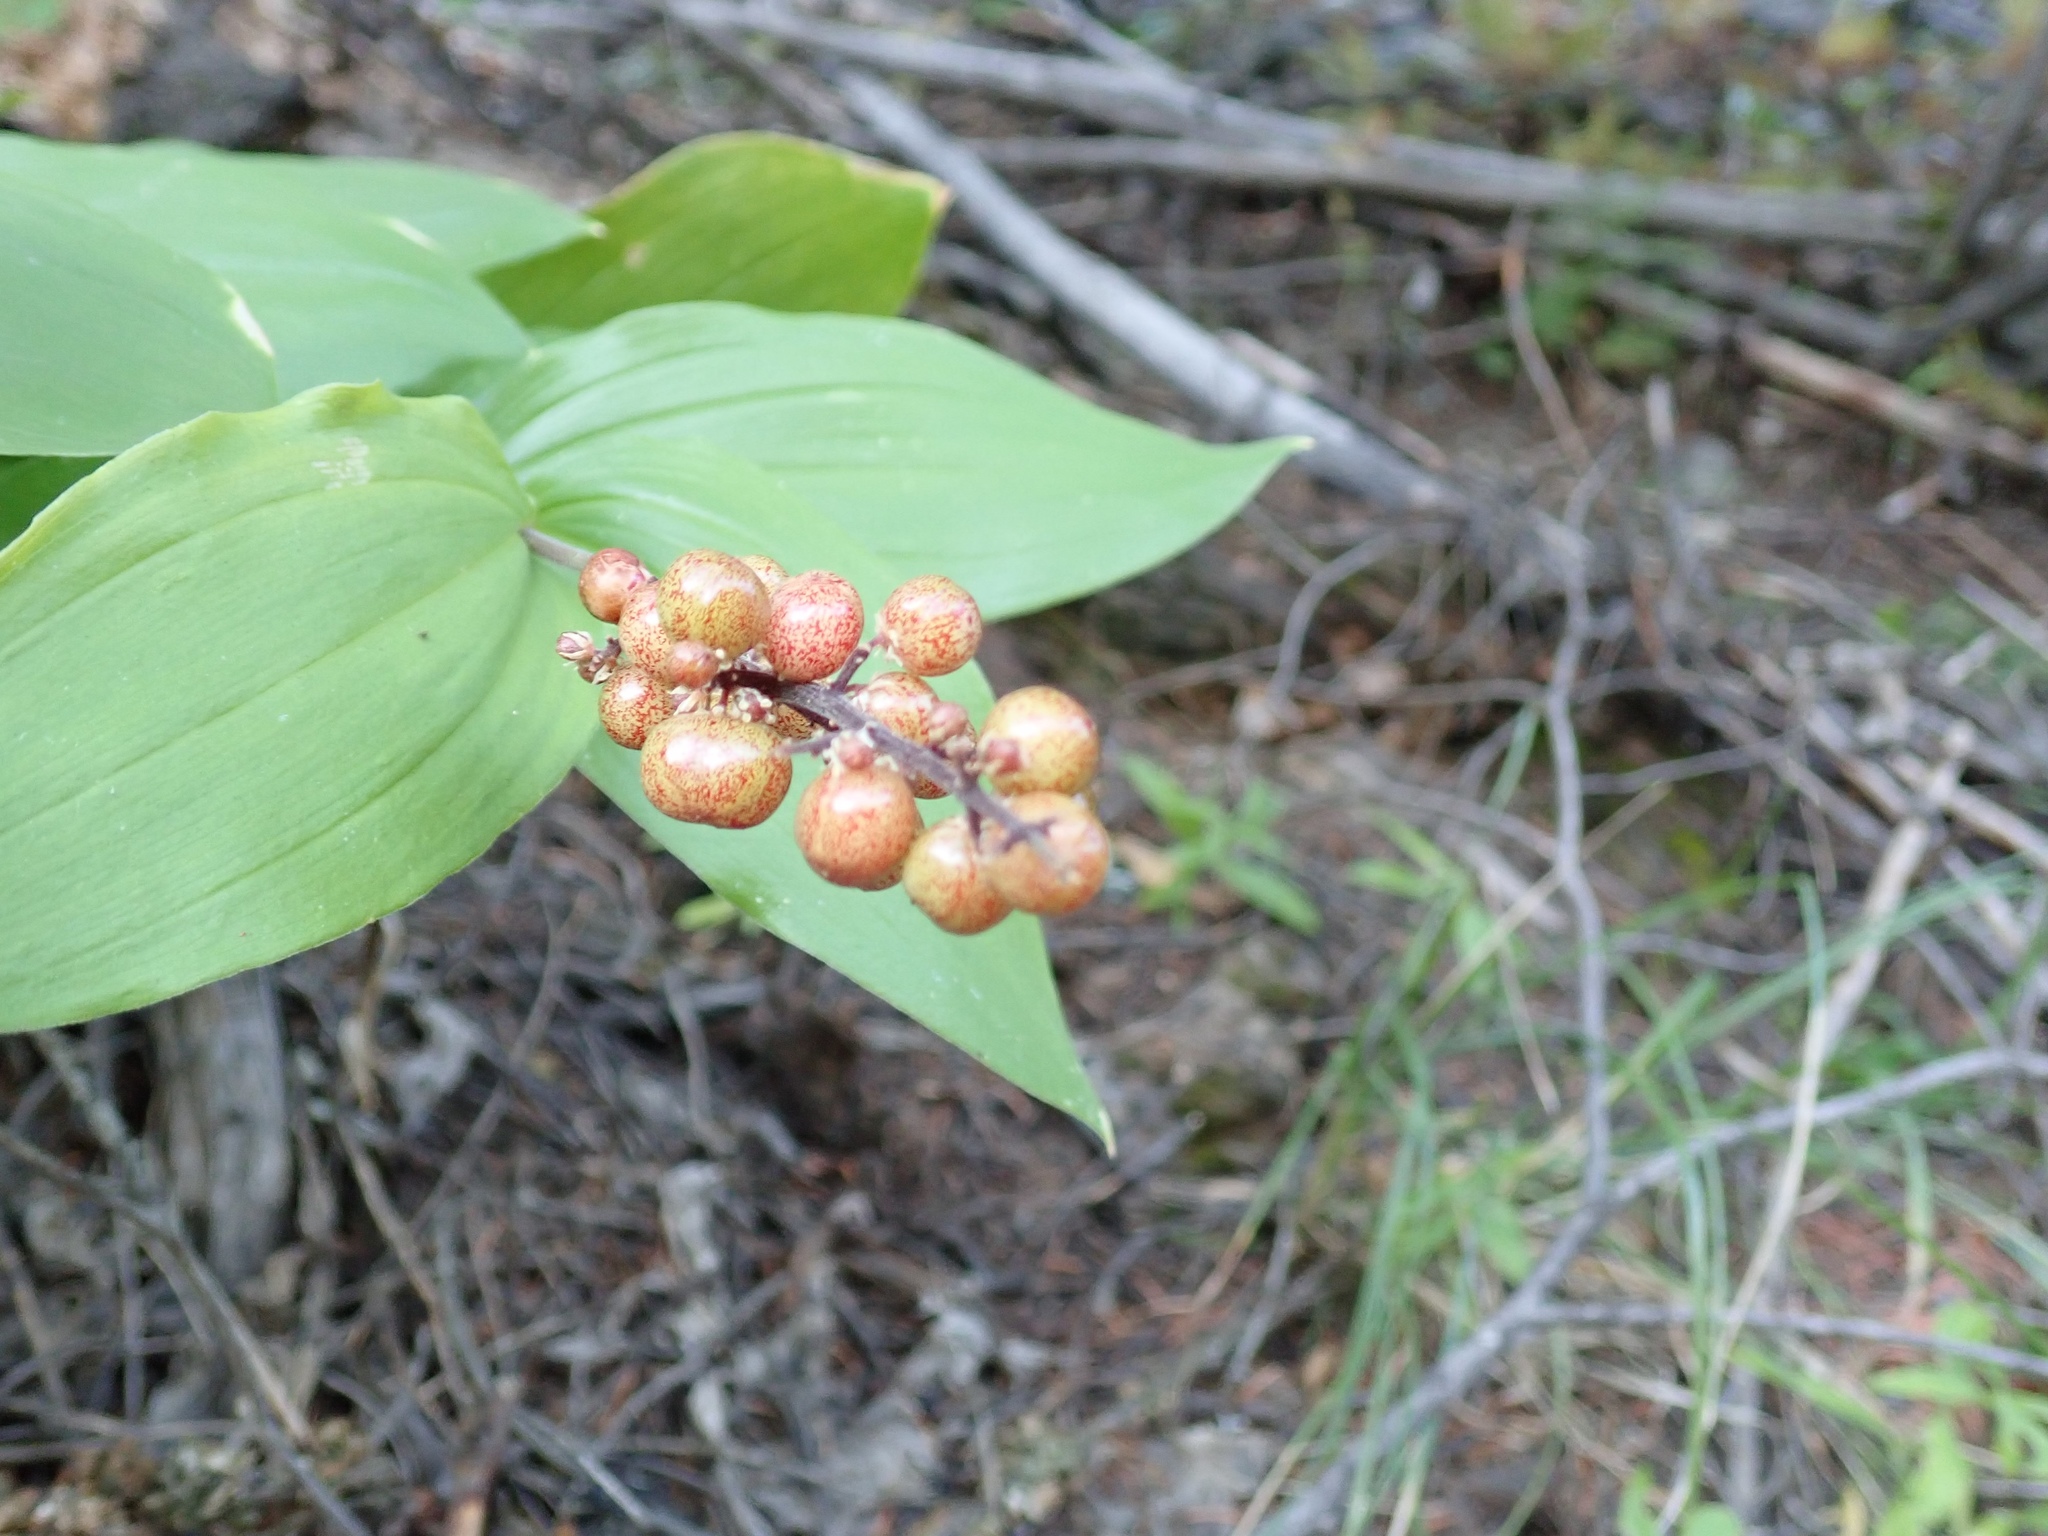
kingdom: Plantae
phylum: Tracheophyta
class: Liliopsida
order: Asparagales
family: Asparagaceae
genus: Maianthemum
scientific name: Maianthemum racemosum
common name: False spikenard
